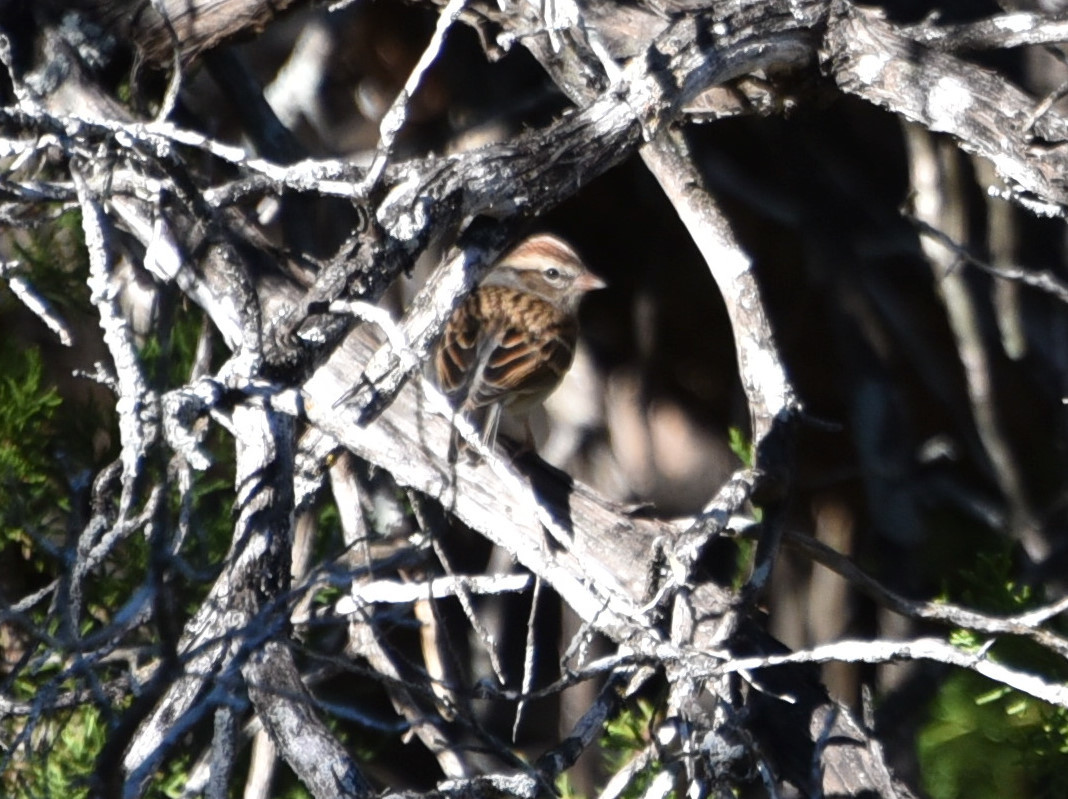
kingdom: Animalia
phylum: Chordata
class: Aves
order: Passeriformes
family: Passerellidae
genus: Spizella
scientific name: Spizella passerina
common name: Chipping sparrow
